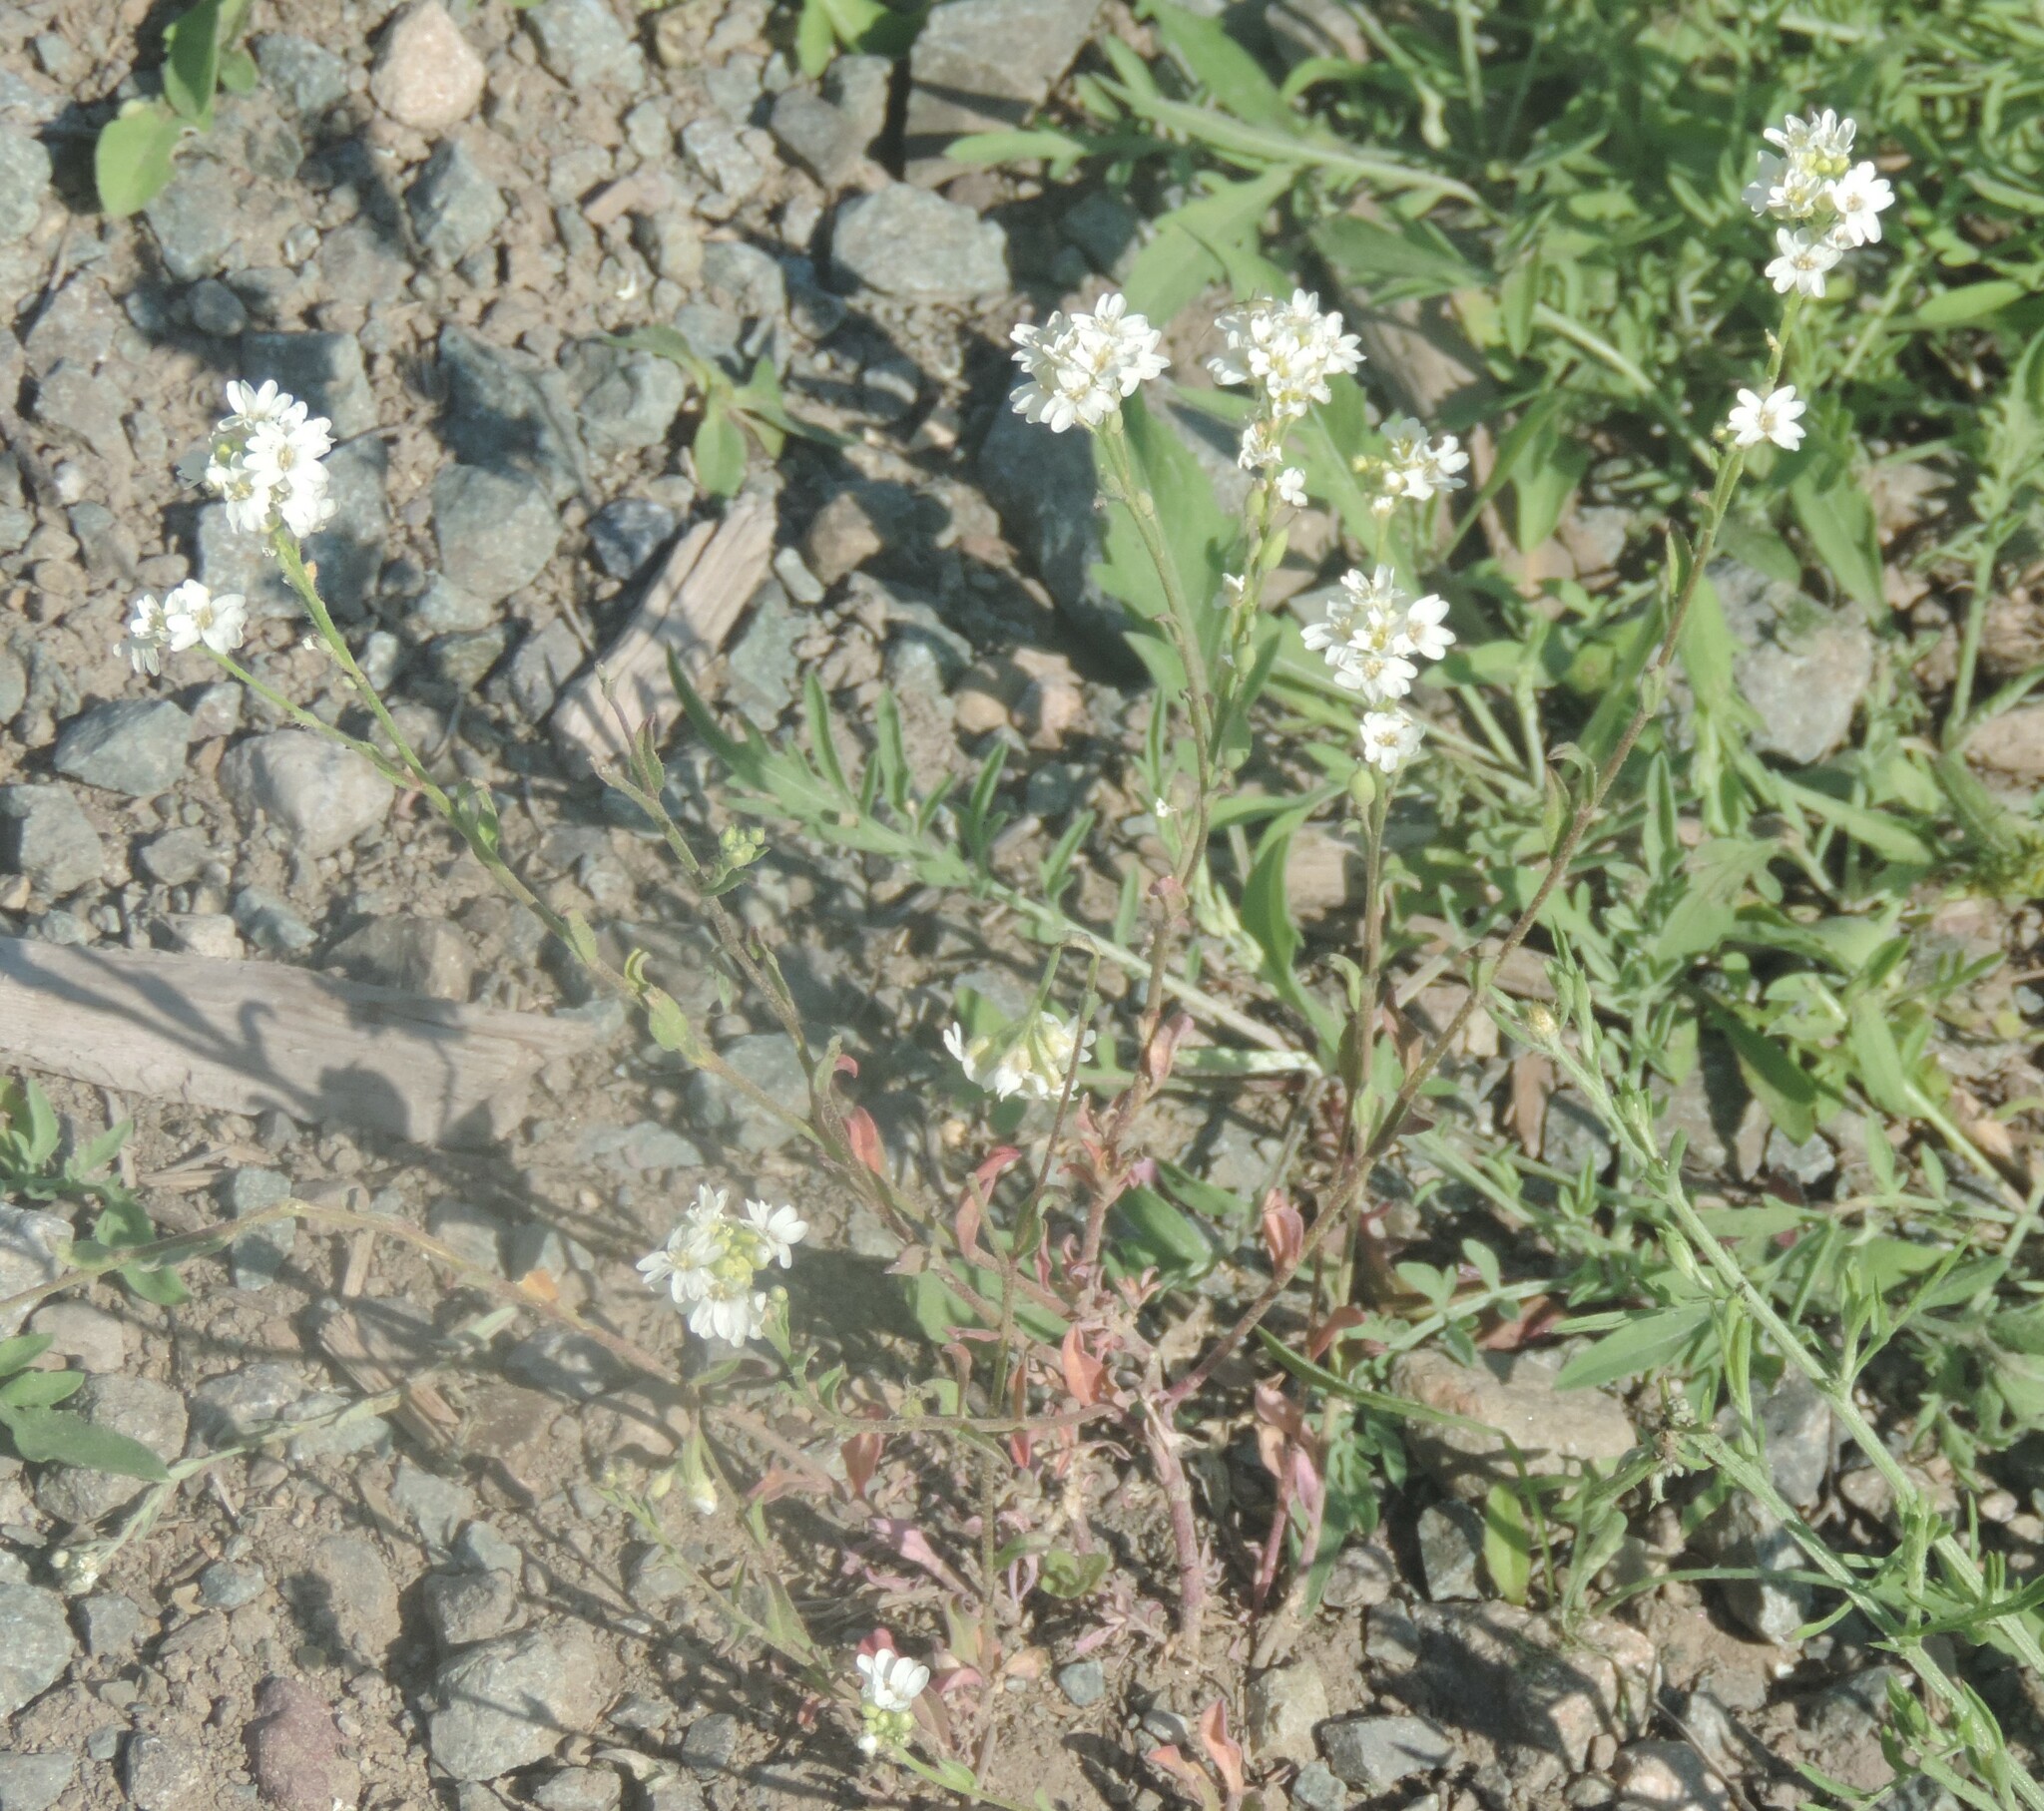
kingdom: Plantae
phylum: Tracheophyta
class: Magnoliopsida
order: Brassicales
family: Brassicaceae
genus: Berteroa
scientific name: Berteroa incana
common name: Hoary alison
